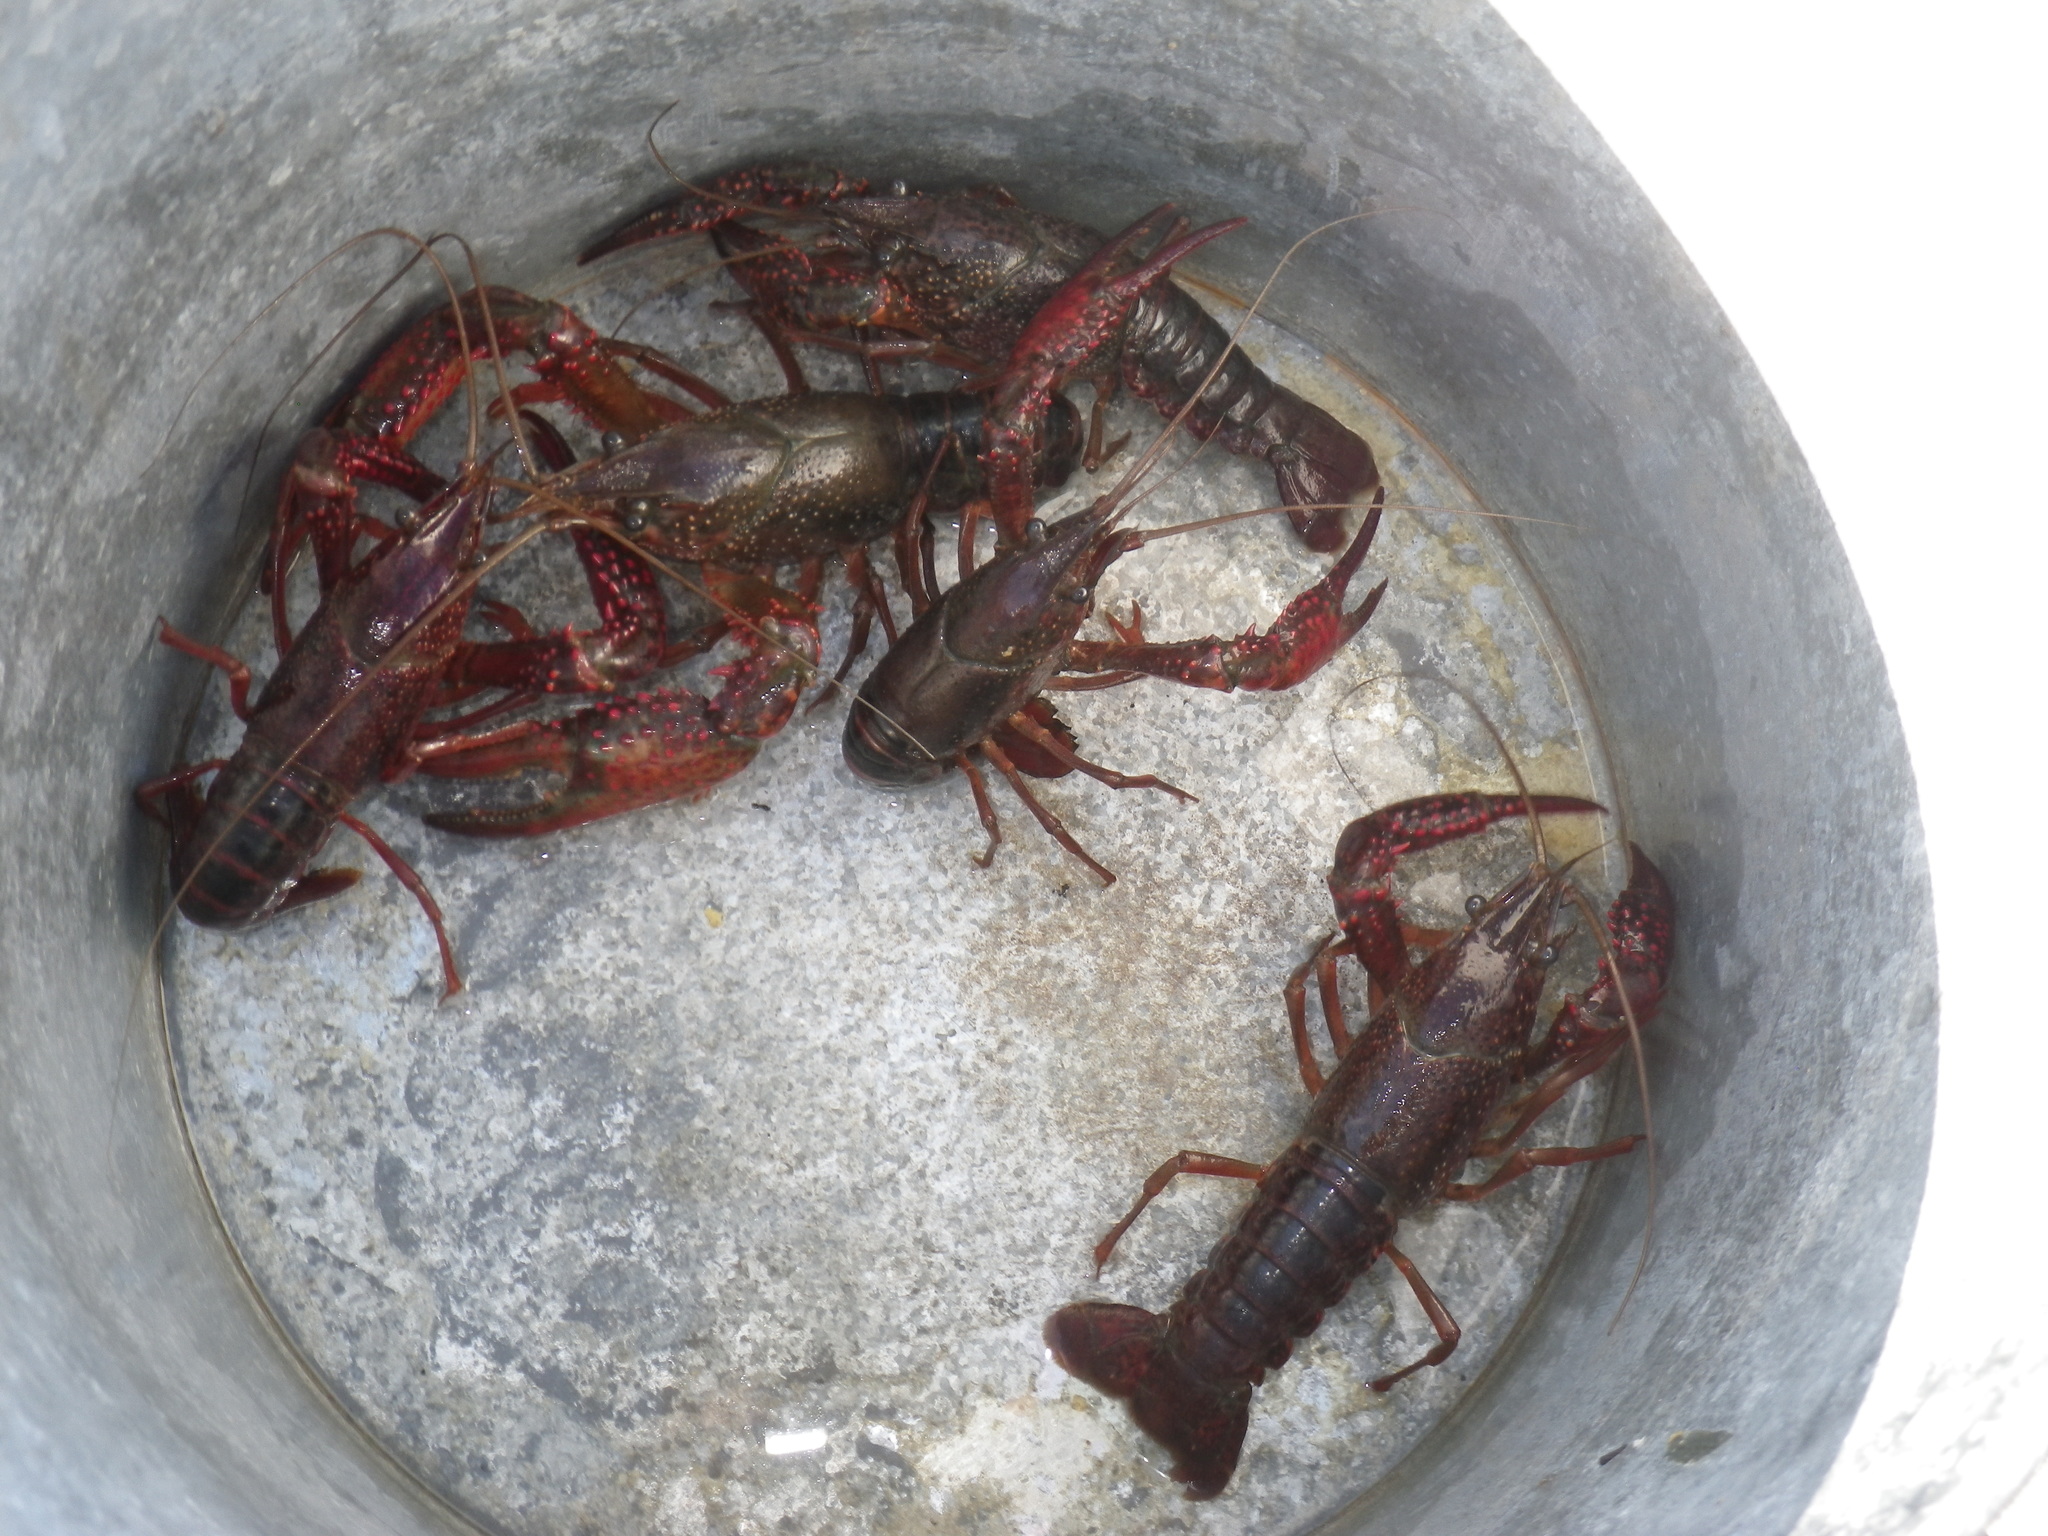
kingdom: Animalia
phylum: Arthropoda
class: Malacostraca
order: Decapoda
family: Cambaridae
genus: Procambarus
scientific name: Procambarus clarkii
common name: Red swamp crayfish
